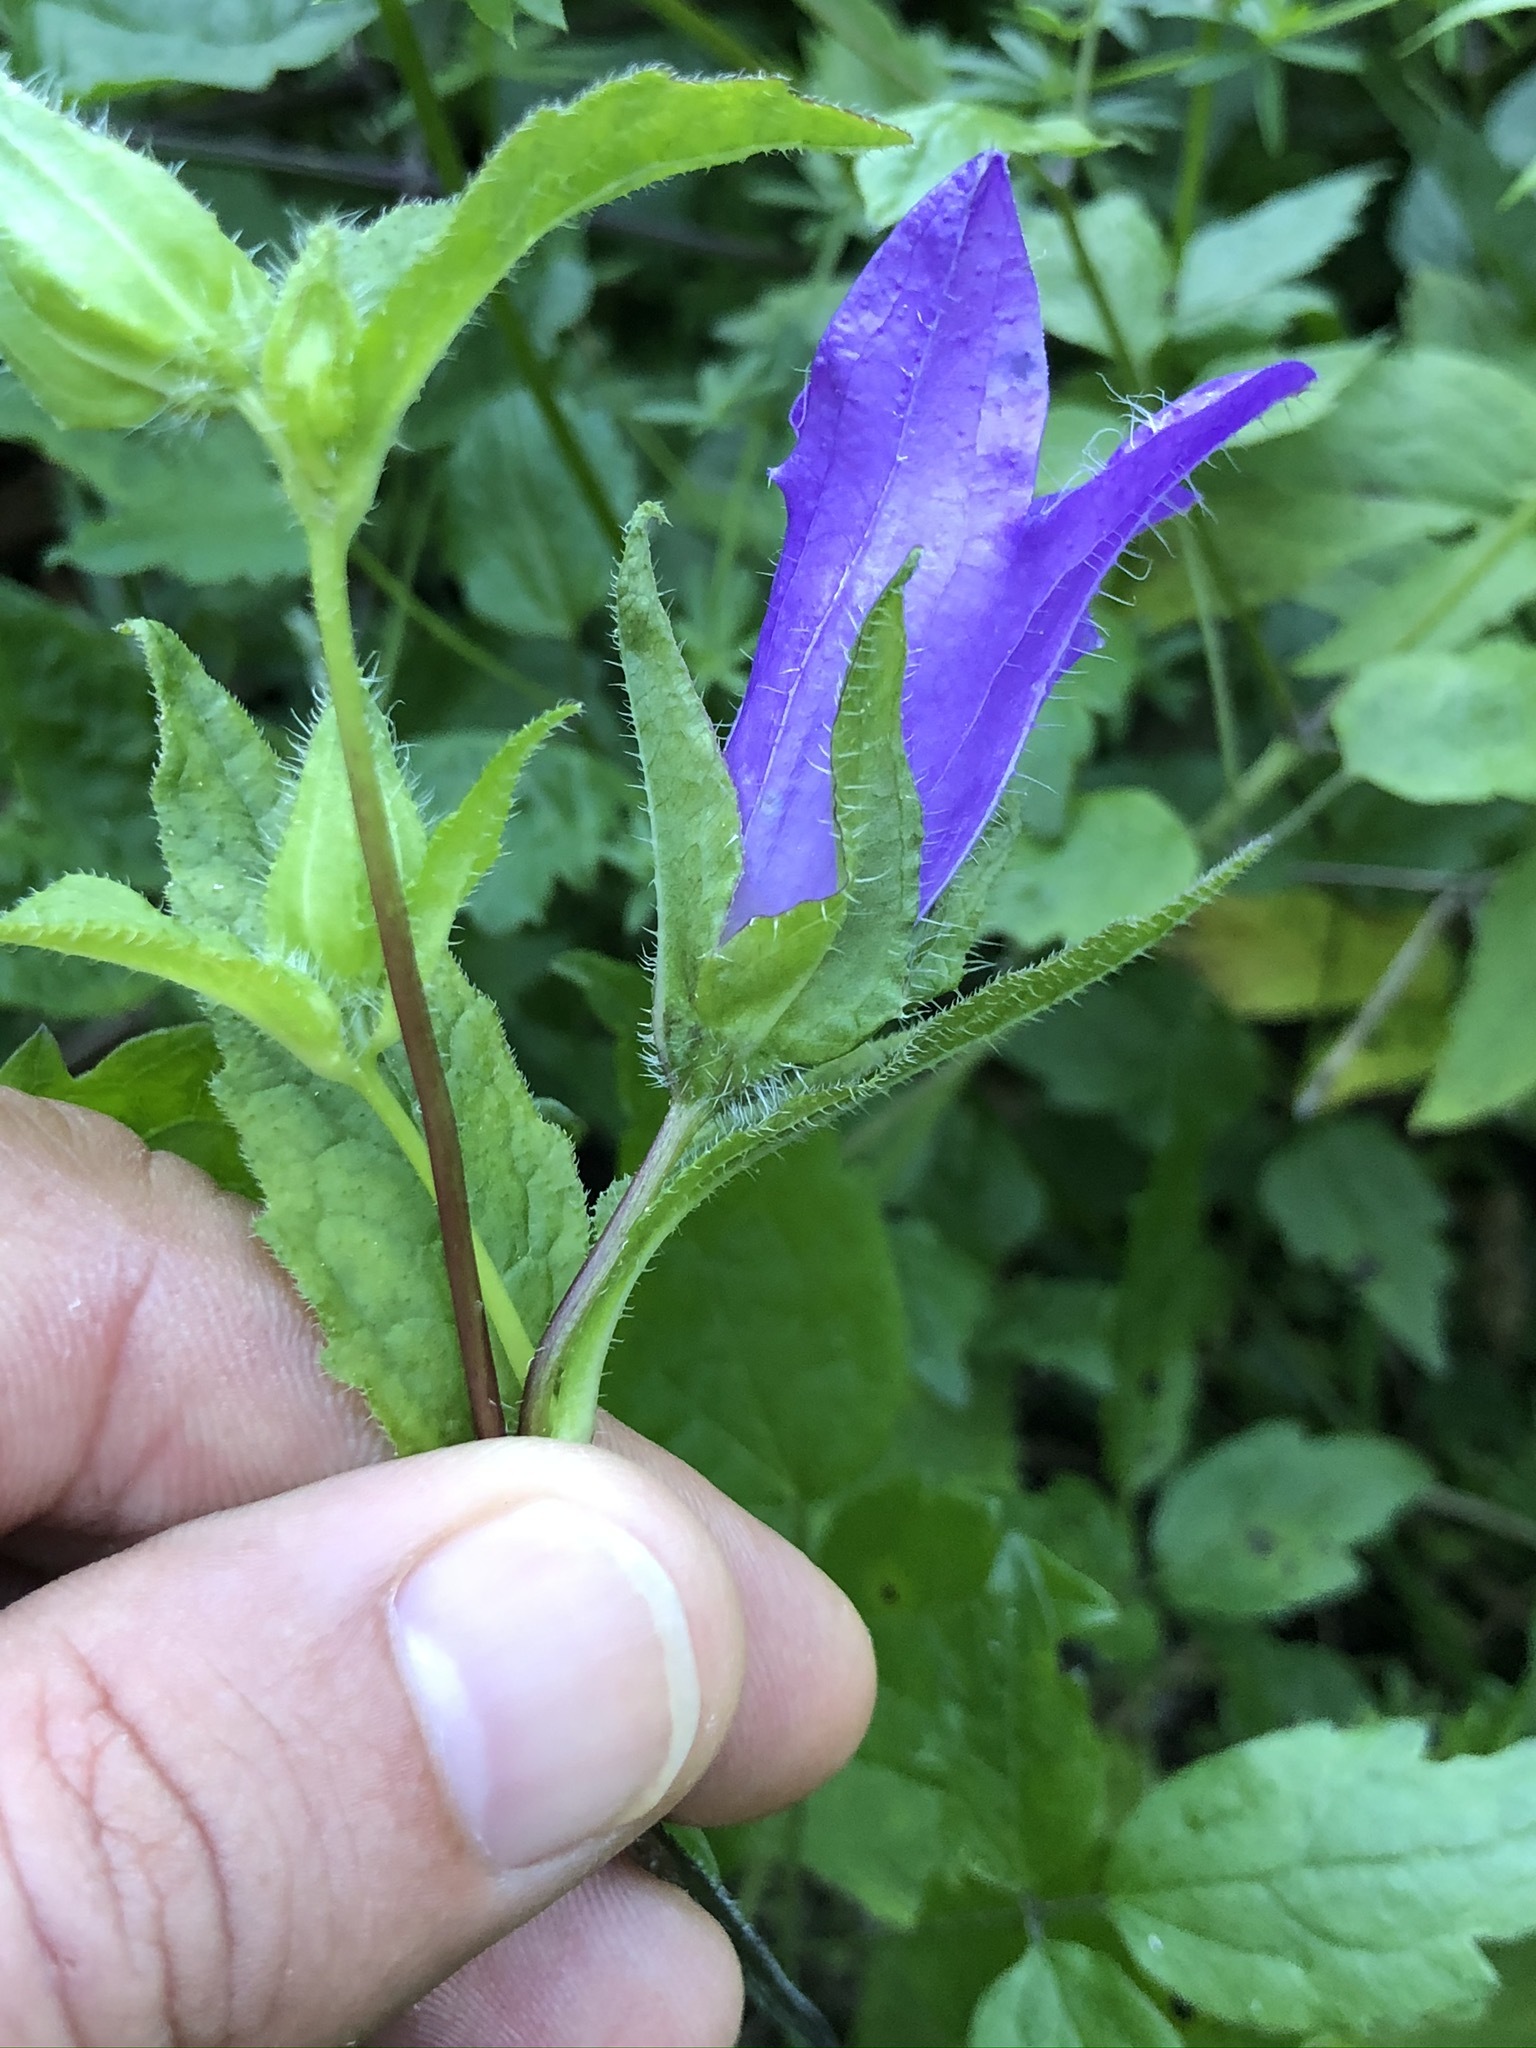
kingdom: Plantae
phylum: Tracheophyta
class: Magnoliopsida
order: Asterales
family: Campanulaceae
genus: Campanula
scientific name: Campanula trachelium
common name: Nettle-leaved bellflower
